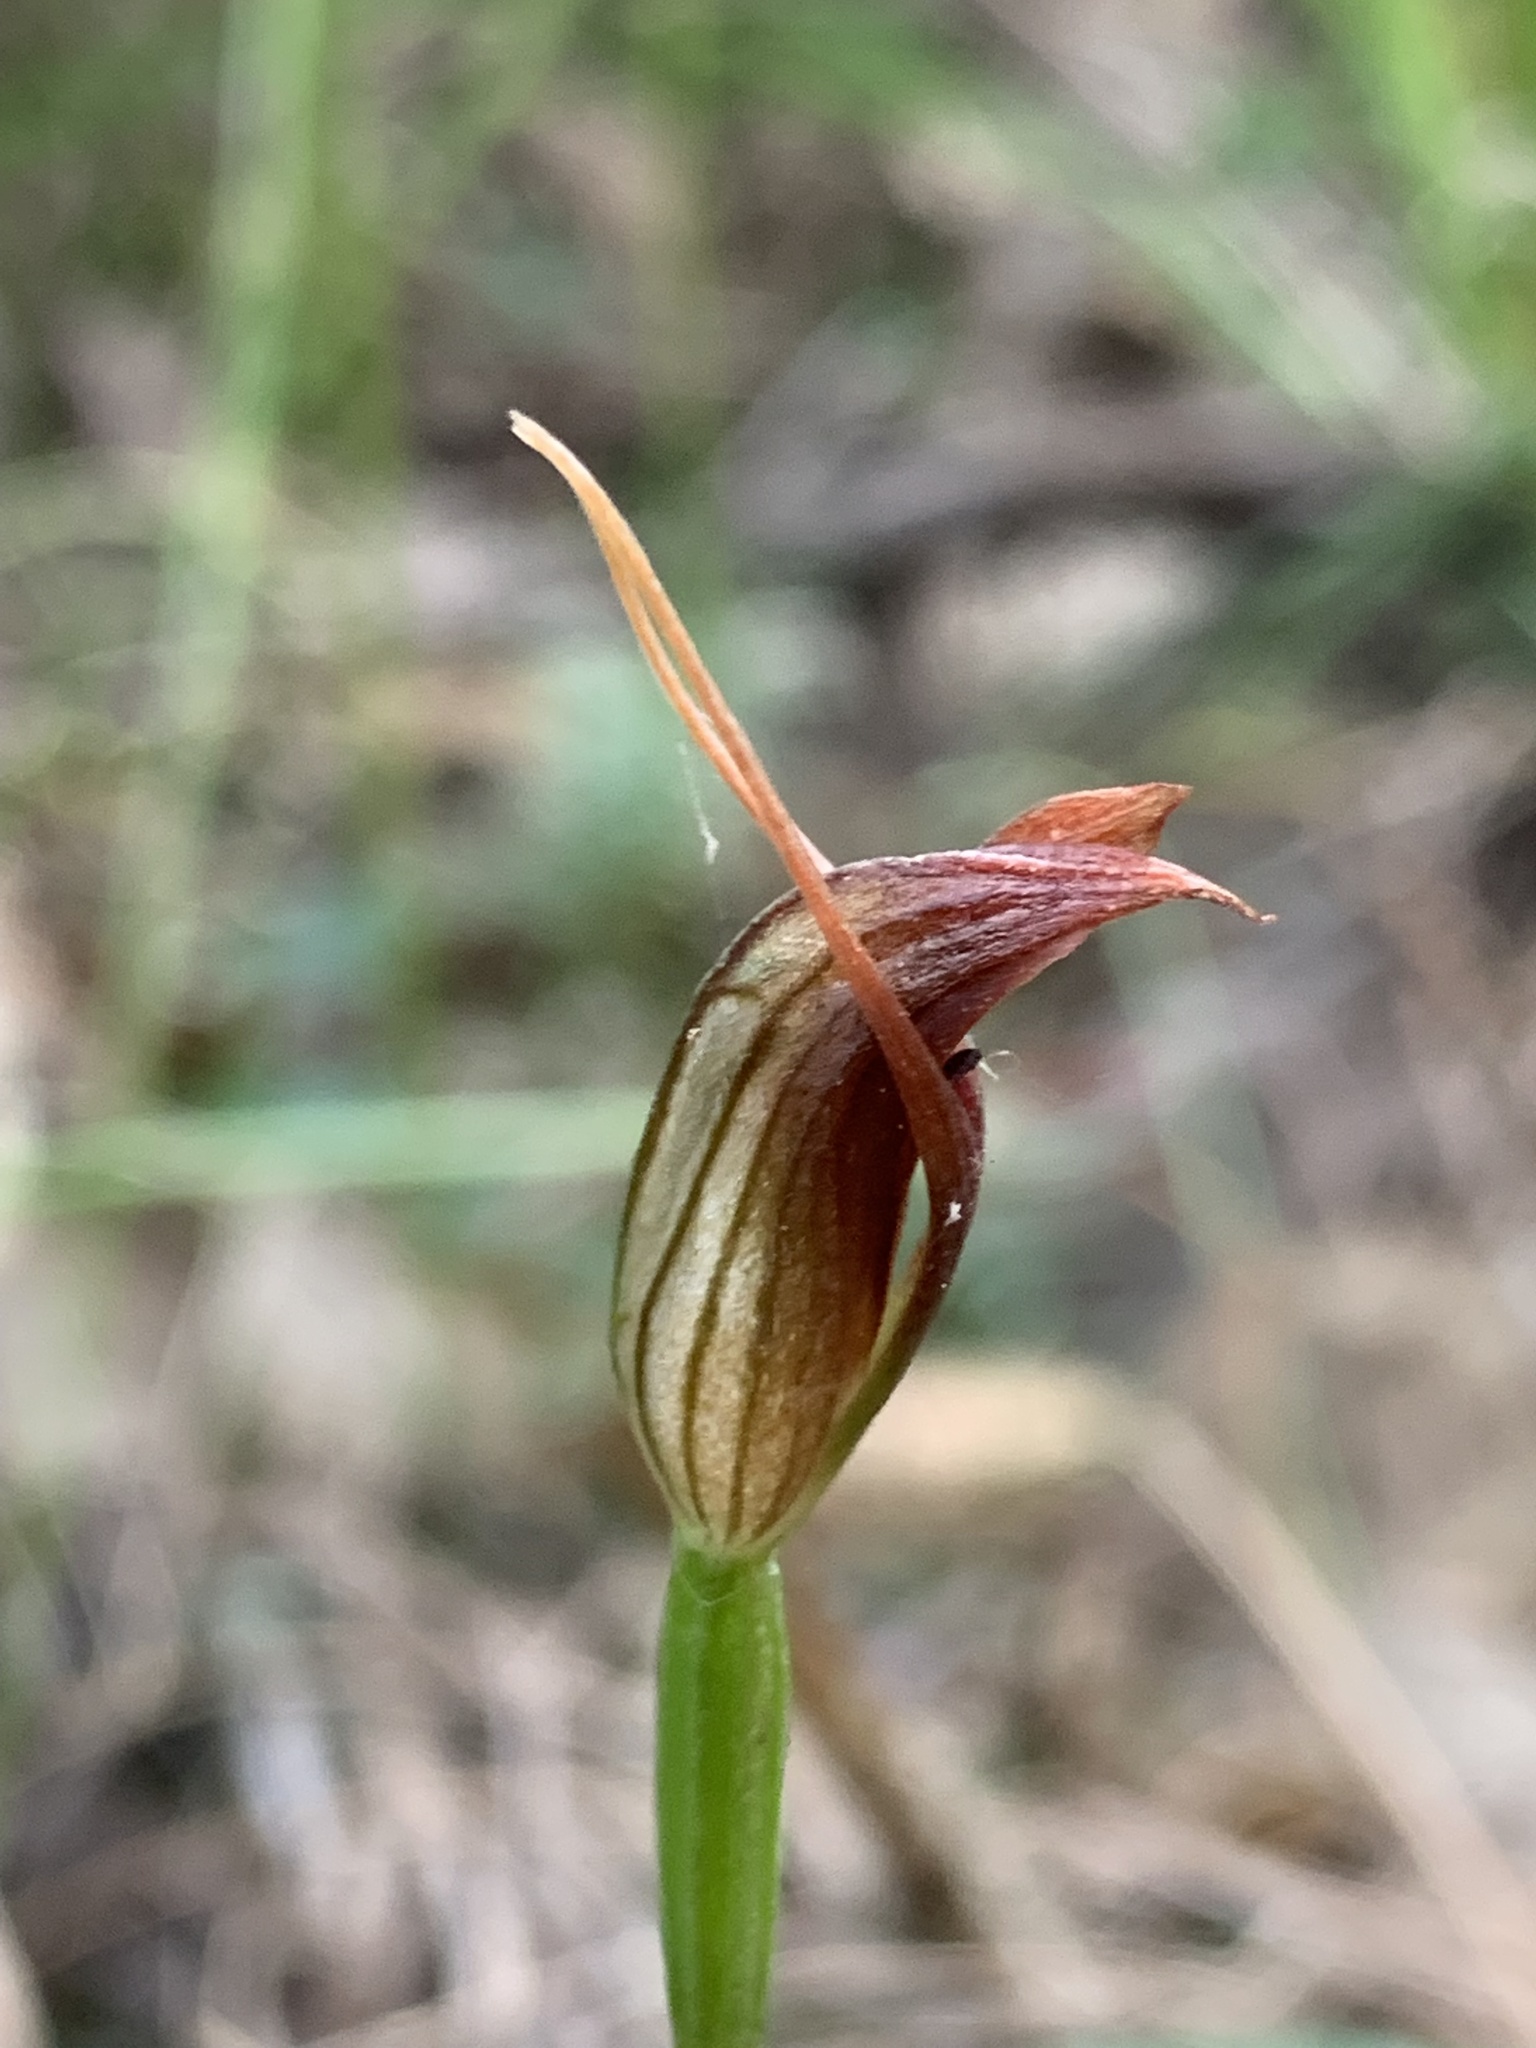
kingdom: Plantae
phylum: Tracheophyta
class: Liliopsida
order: Asparagales
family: Orchidaceae
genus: Pterostylis
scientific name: Pterostylis erecta
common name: Upright maroonhood
